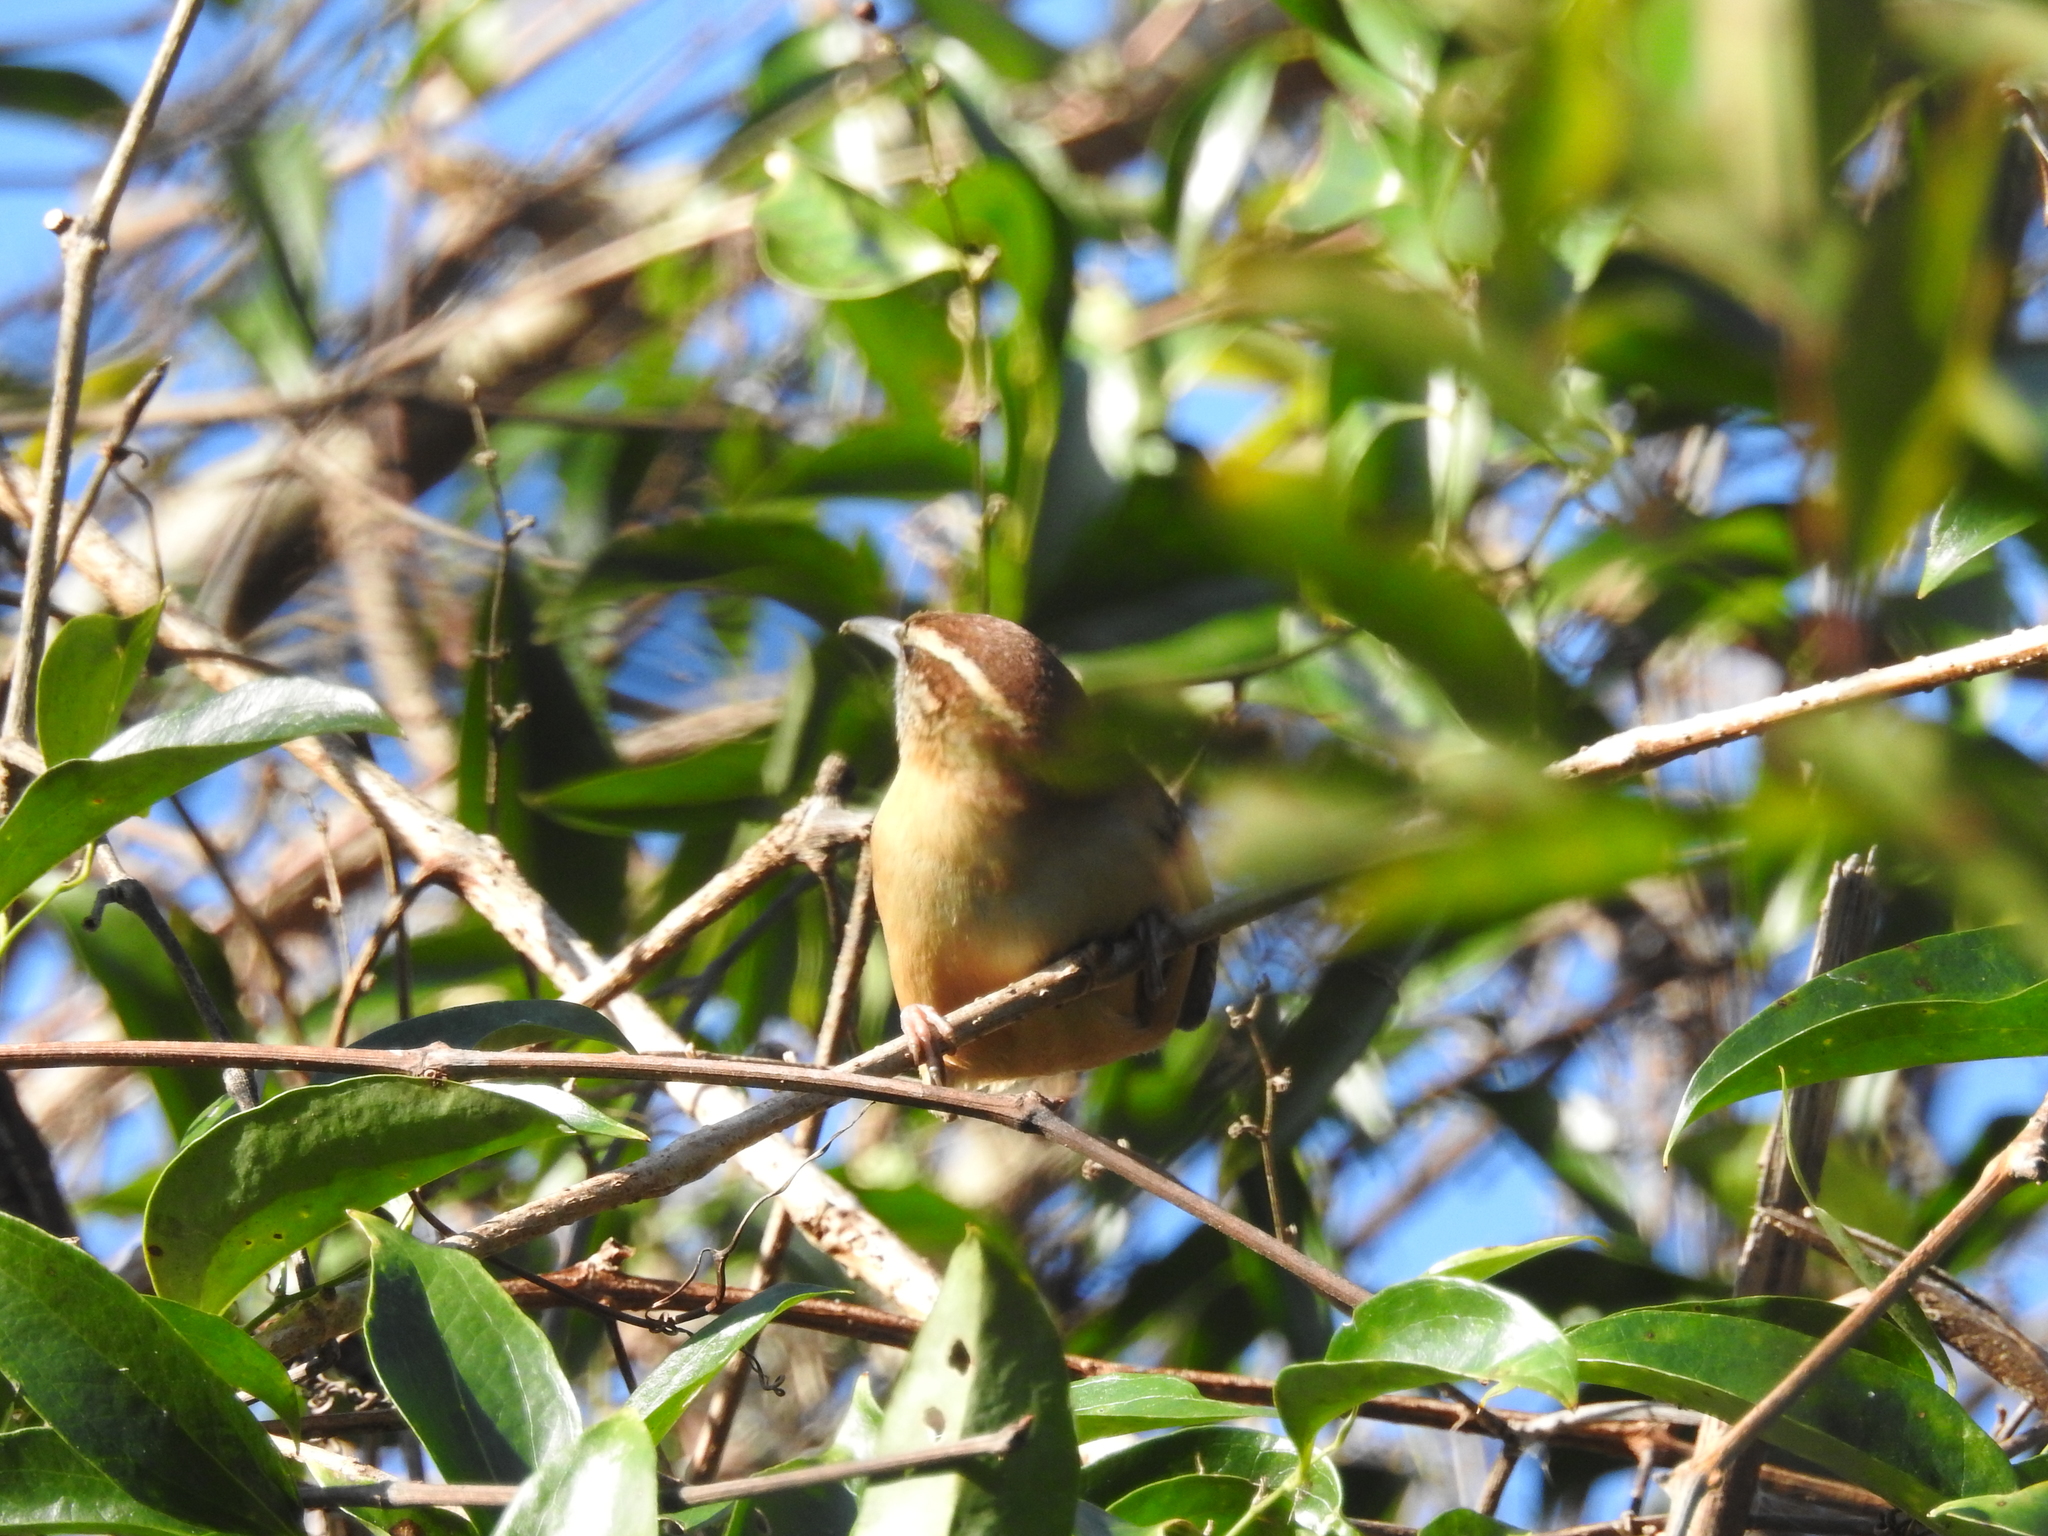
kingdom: Animalia
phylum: Chordata
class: Aves
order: Passeriformes
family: Troglodytidae
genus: Thryothorus
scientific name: Thryothorus ludovicianus
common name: Carolina wren
